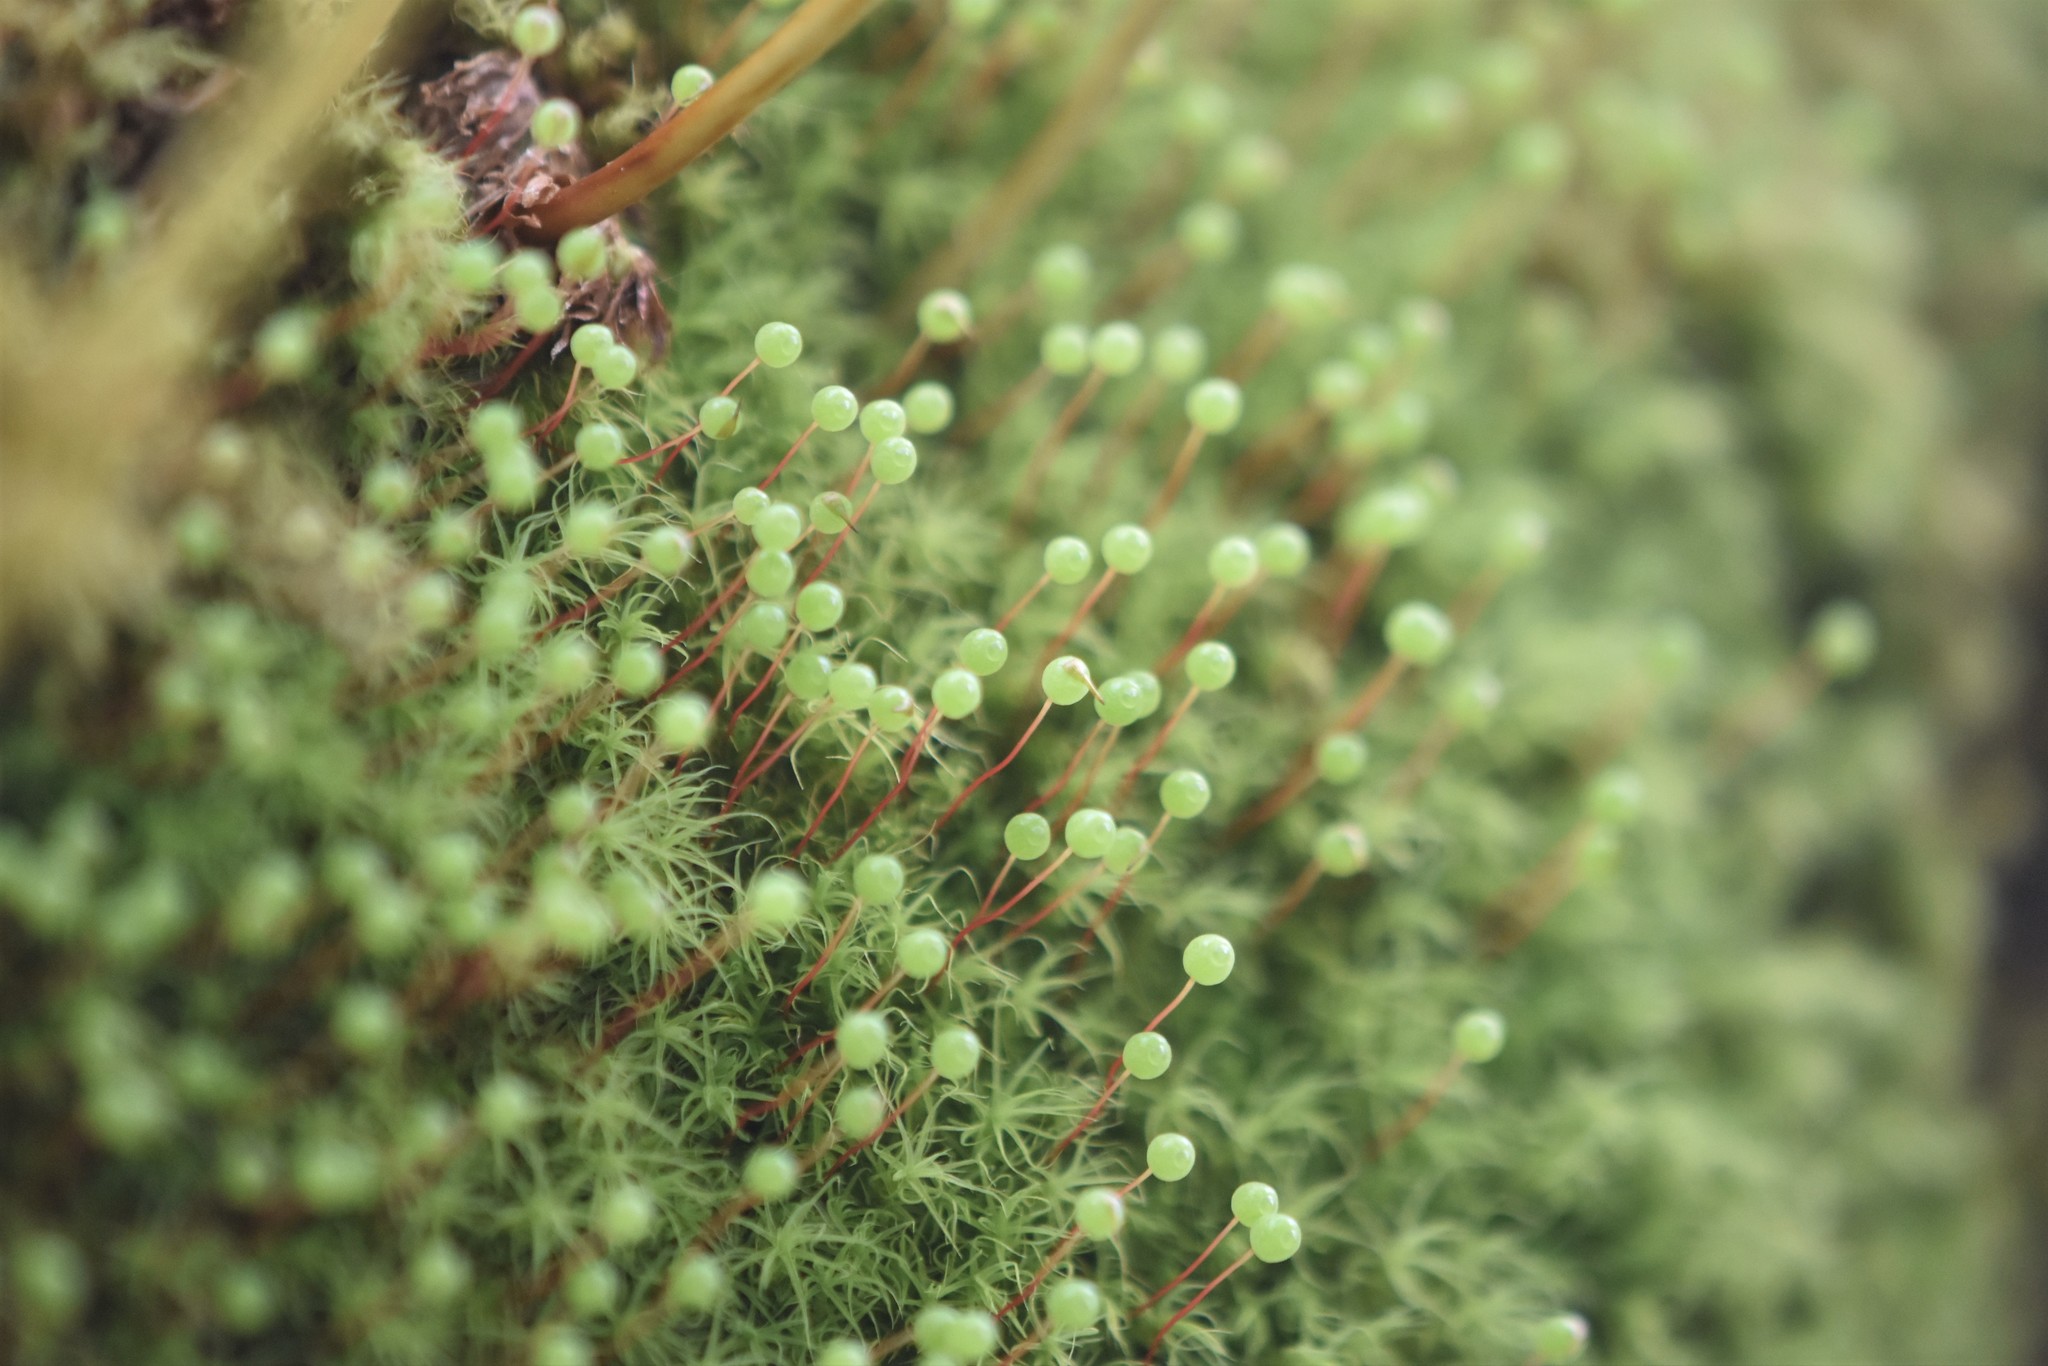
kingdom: Plantae
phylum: Bryophyta
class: Bryopsida
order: Bartramiales
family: Bartramiaceae
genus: Bartramia
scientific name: Bartramia ithyphylla
